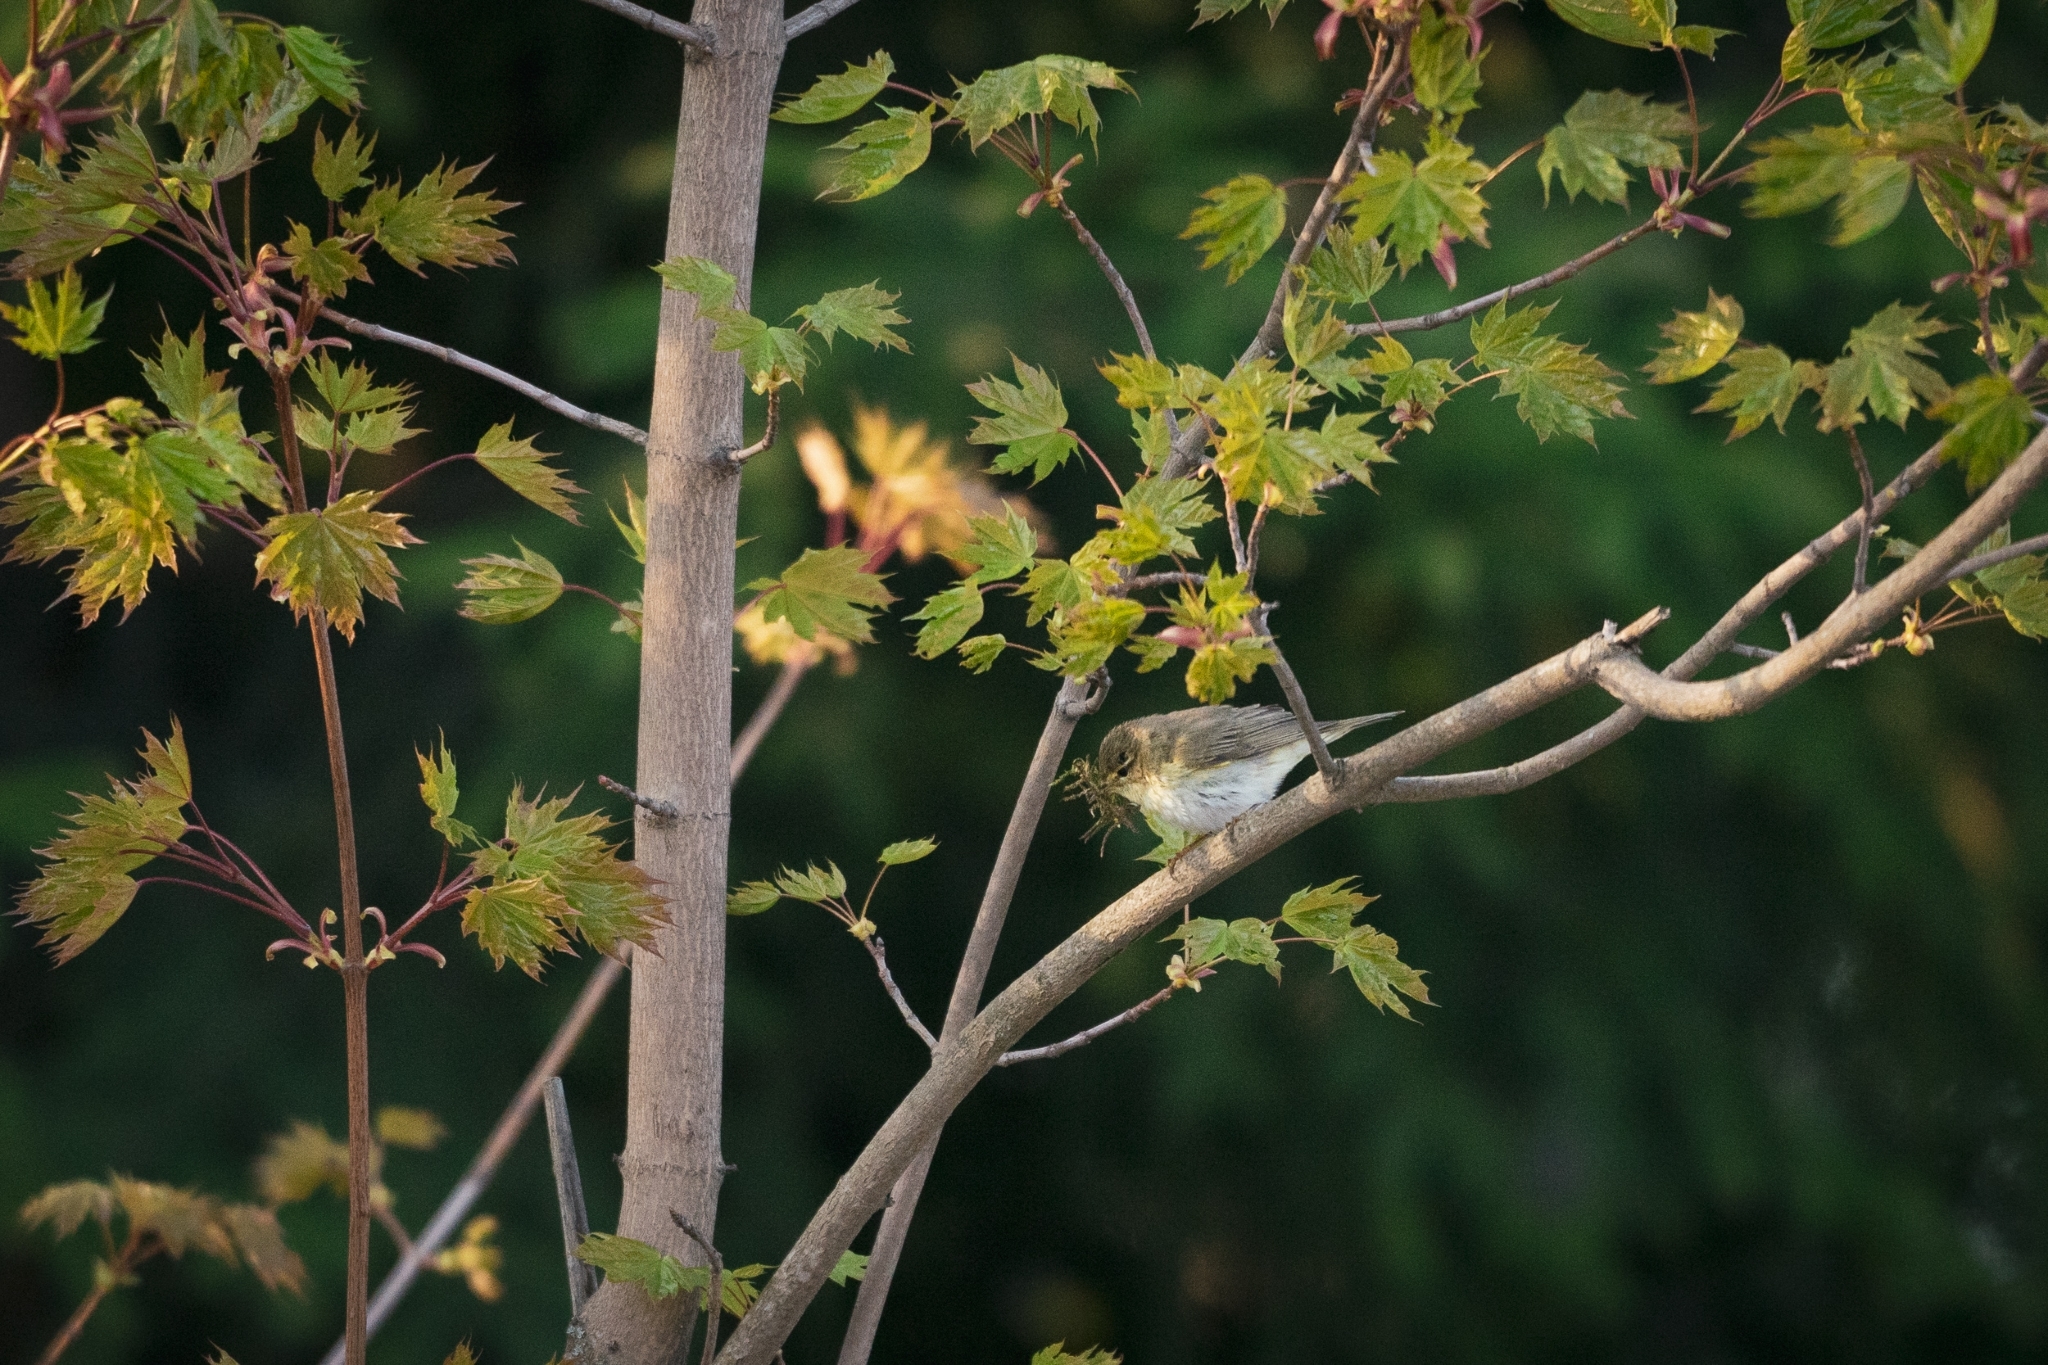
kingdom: Animalia
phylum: Chordata
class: Aves
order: Passeriformes
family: Phylloscopidae
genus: Phylloscopus
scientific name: Phylloscopus trochilus
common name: Willow warbler
